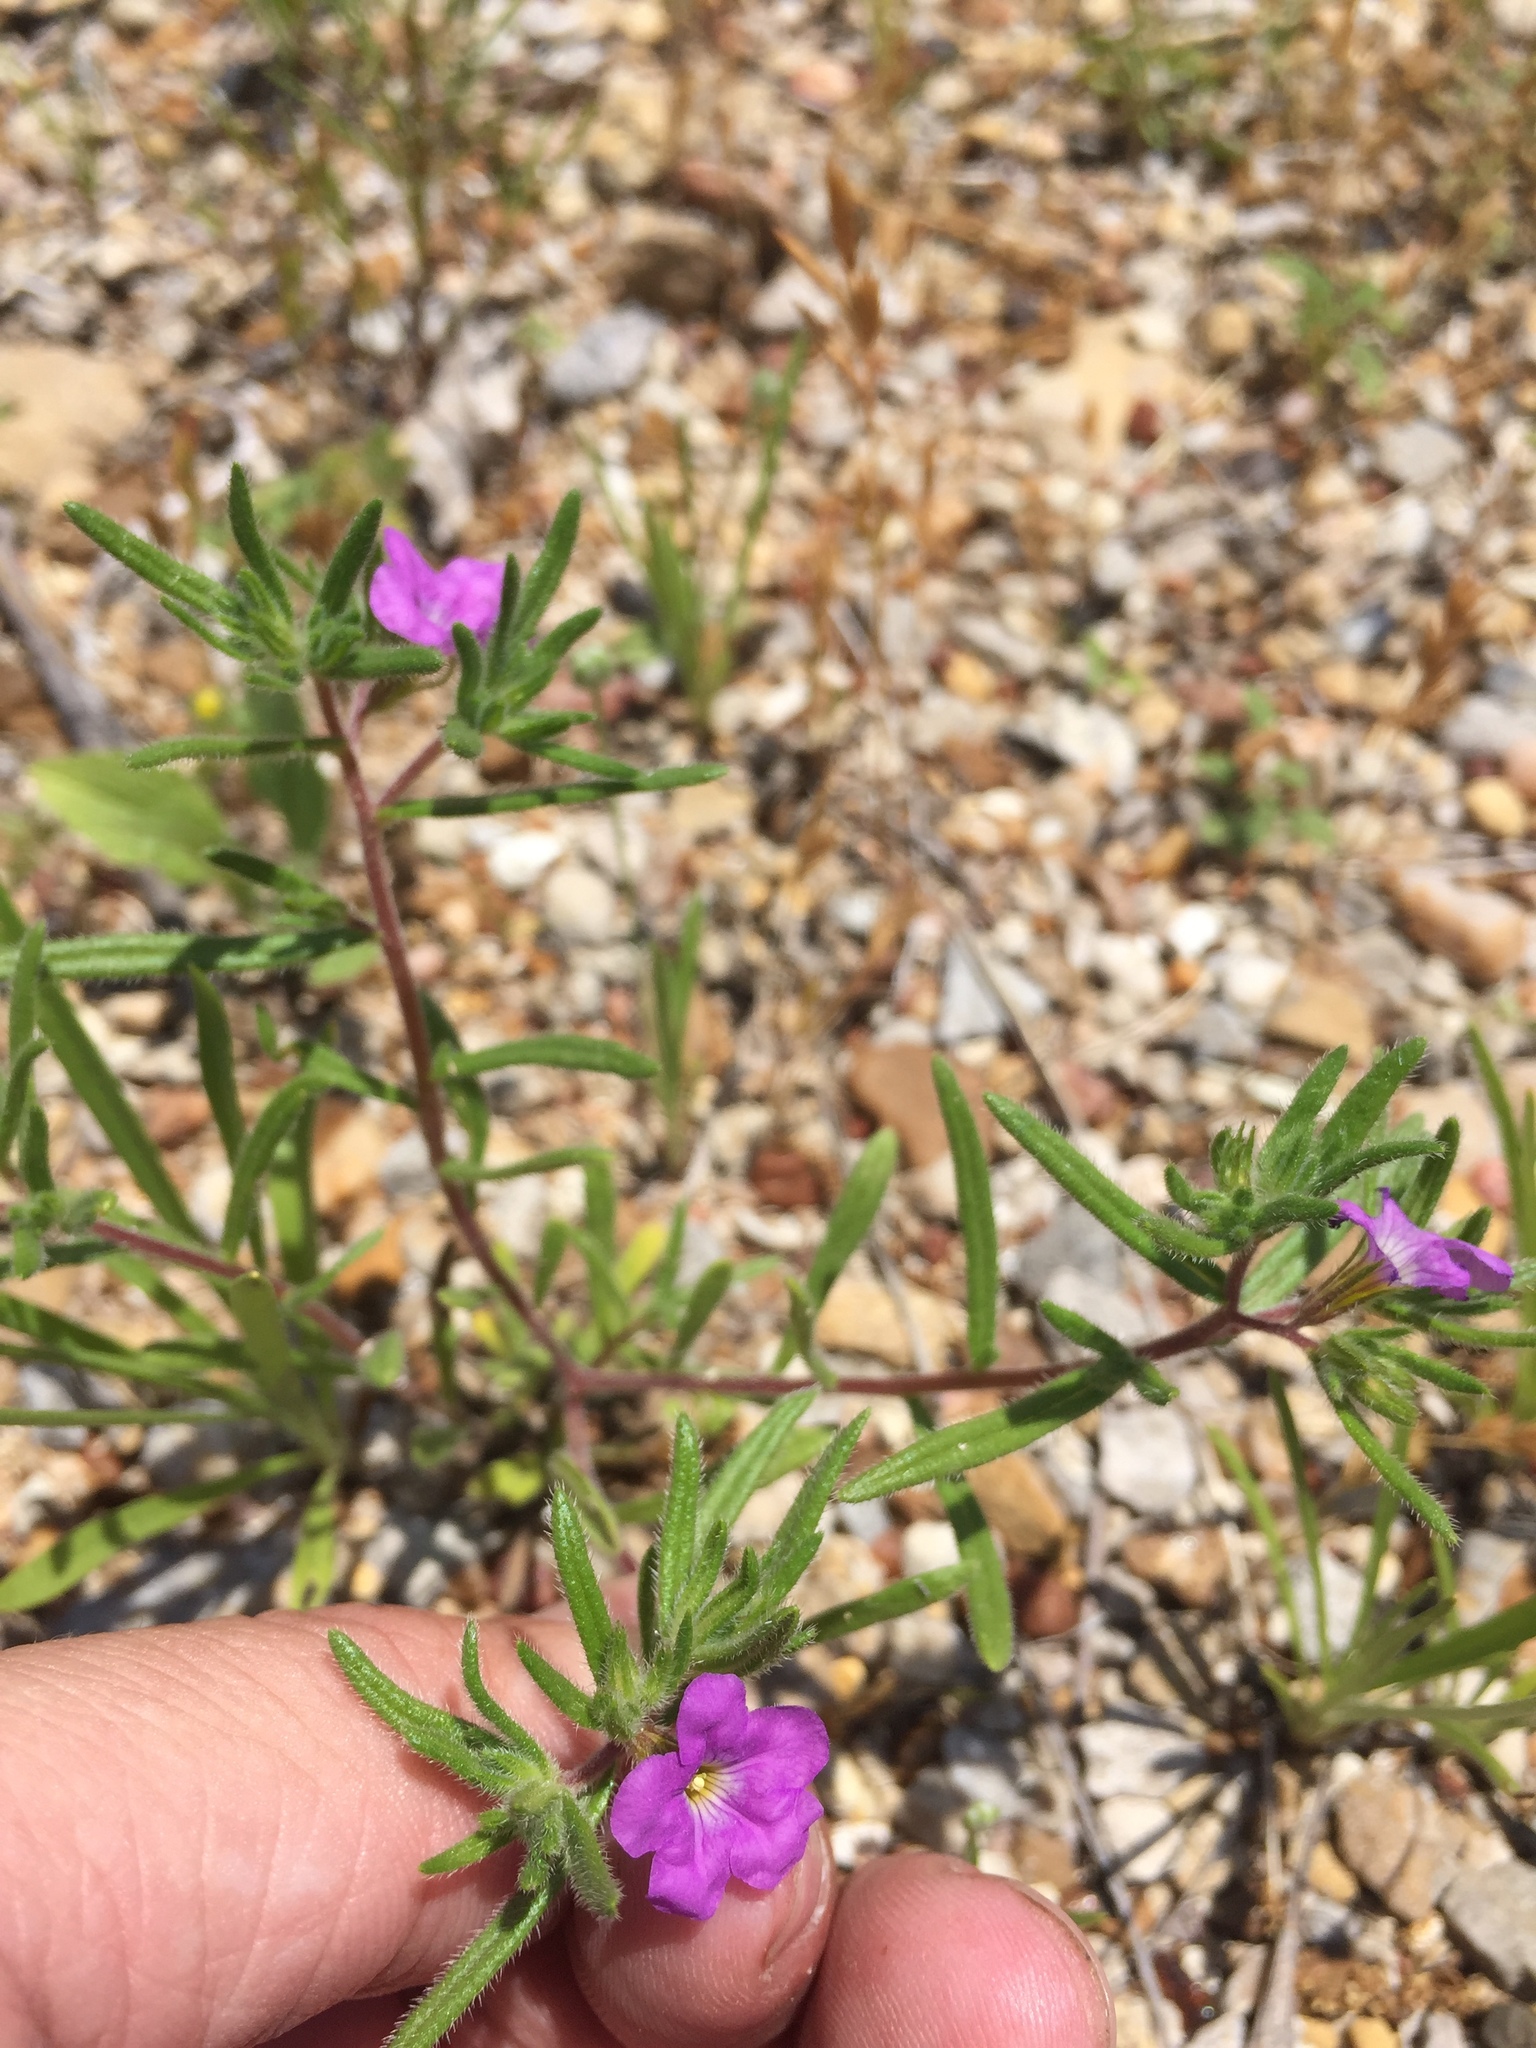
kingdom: Plantae
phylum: Tracheophyta
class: Magnoliopsida
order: Boraginales
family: Namaceae
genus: Nama
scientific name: Nama hispida
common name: Bristly nama
